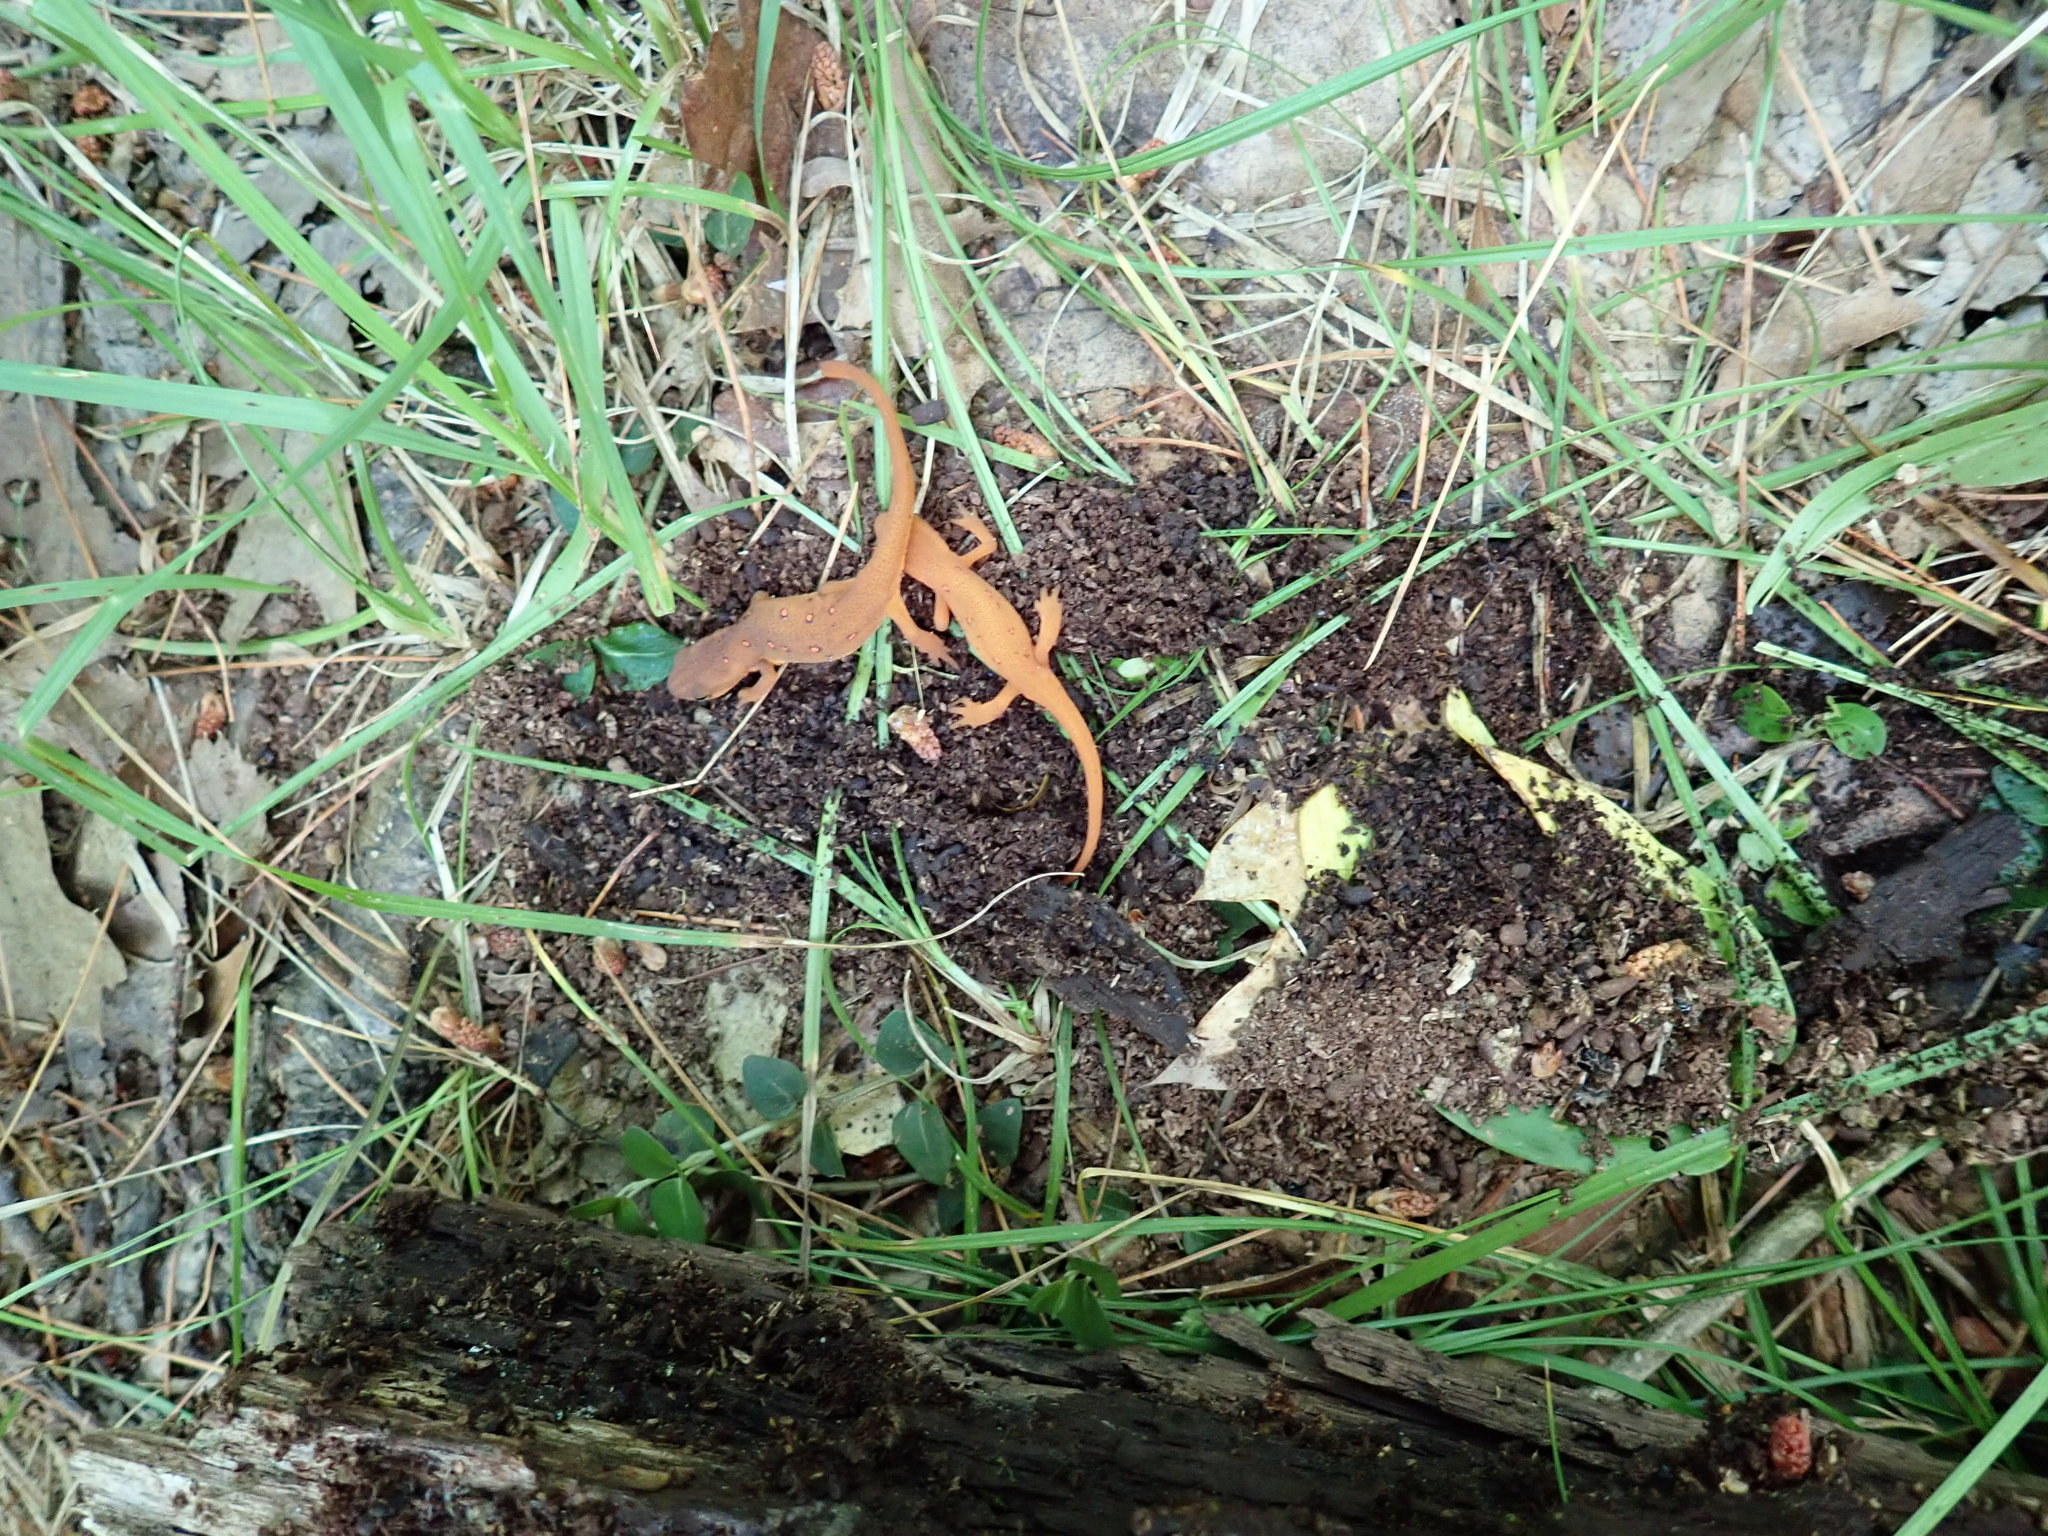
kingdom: Animalia
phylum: Chordata
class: Amphibia
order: Caudata
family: Salamandridae
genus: Notophthalmus
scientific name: Notophthalmus viridescens
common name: Eastern newt
